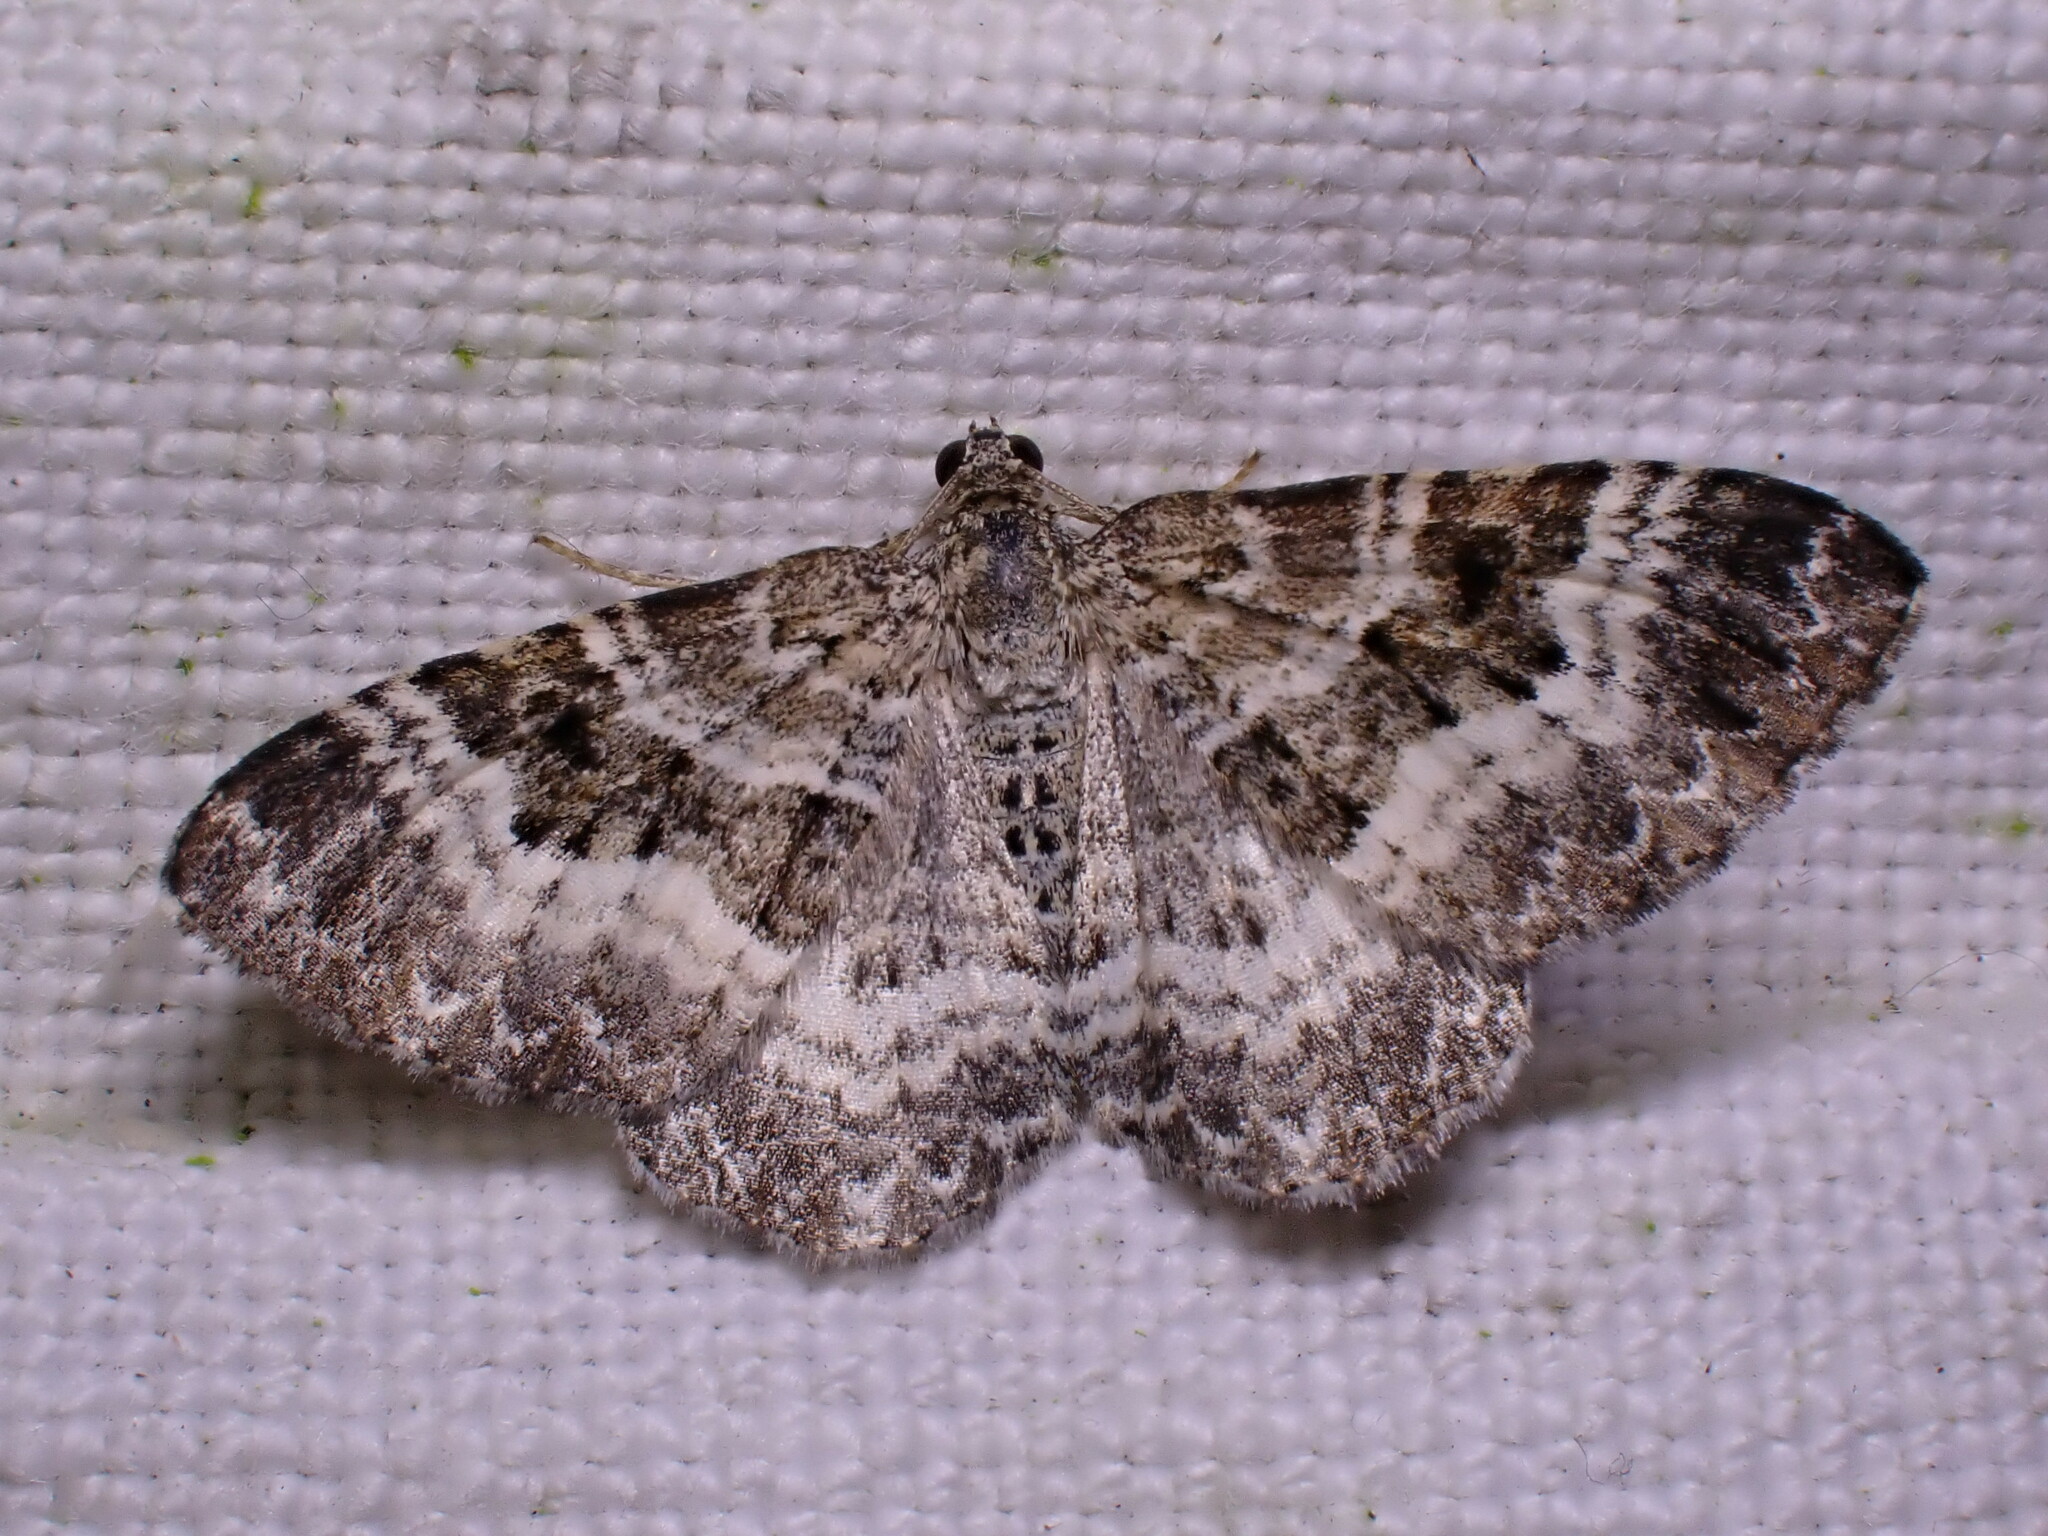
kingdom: Animalia
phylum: Arthropoda
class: Insecta
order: Lepidoptera
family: Geometridae
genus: Epirrhoe
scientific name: Epirrhoe alternata
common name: Common carpet
